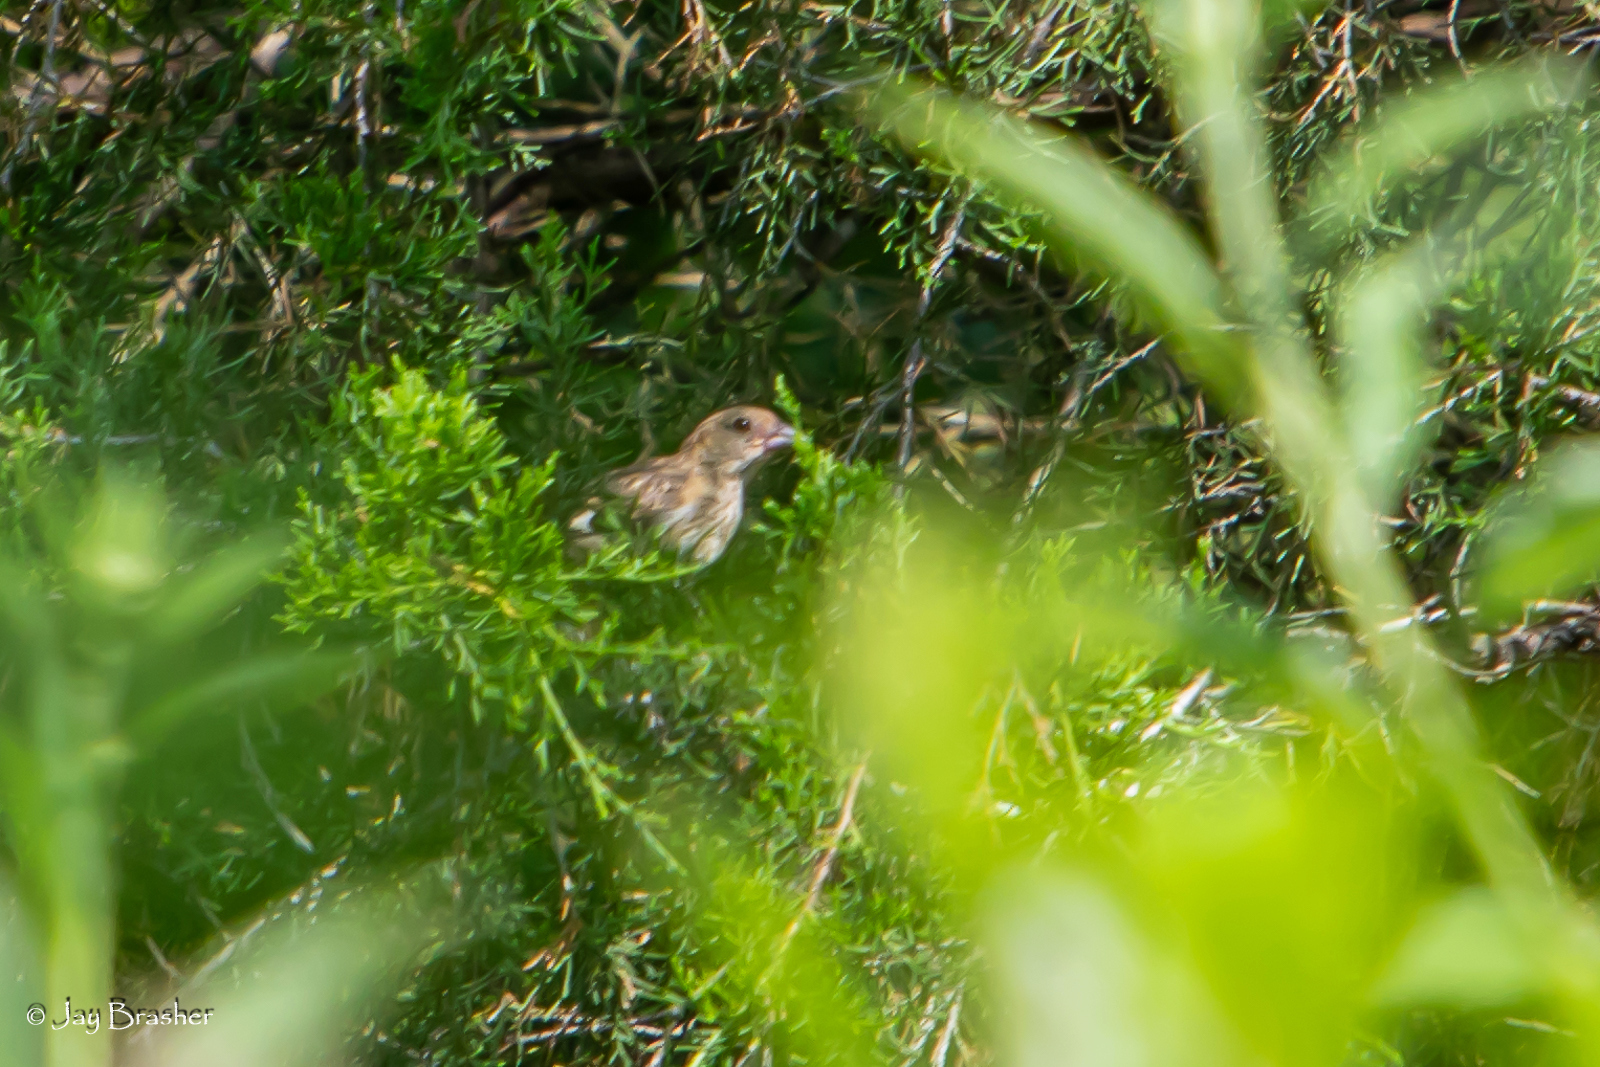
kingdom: Animalia
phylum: Chordata
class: Aves
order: Passeriformes
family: Cardinalidae
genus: Passerina
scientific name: Passerina cyanea
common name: Indigo bunting
